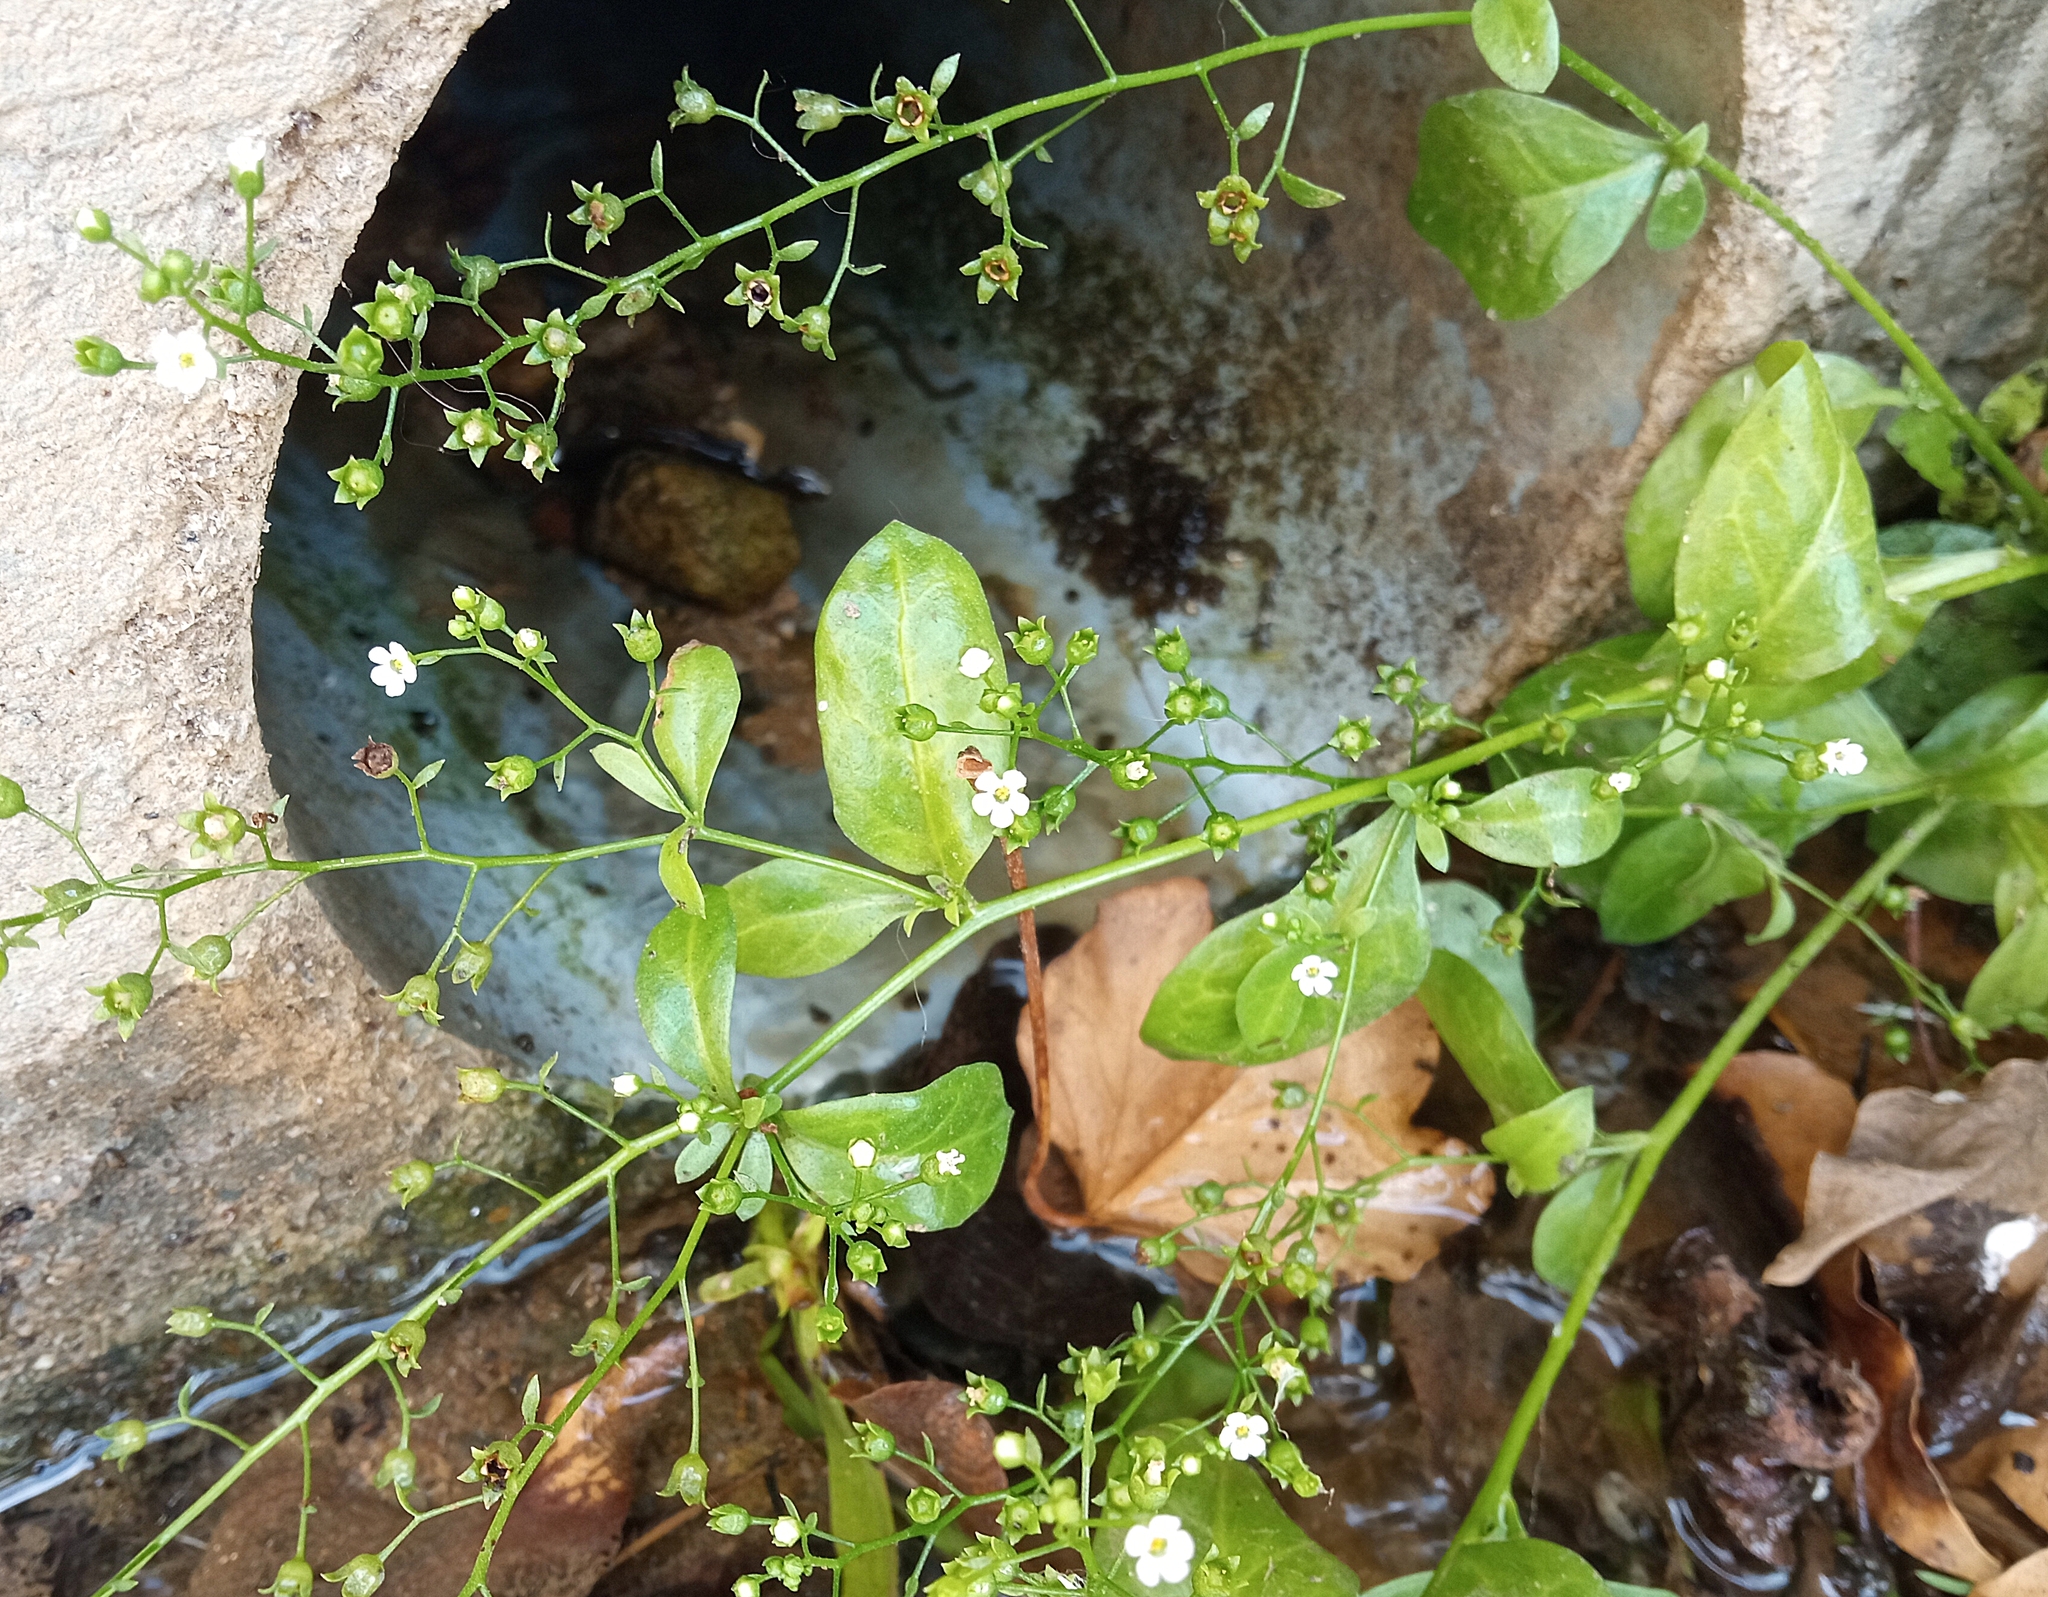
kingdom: Plantae
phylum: Tracheophyta
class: Magnoliopsida
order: Ericales
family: Primulaceae
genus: Samolus
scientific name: Samolus valerandi
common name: Brookweed
